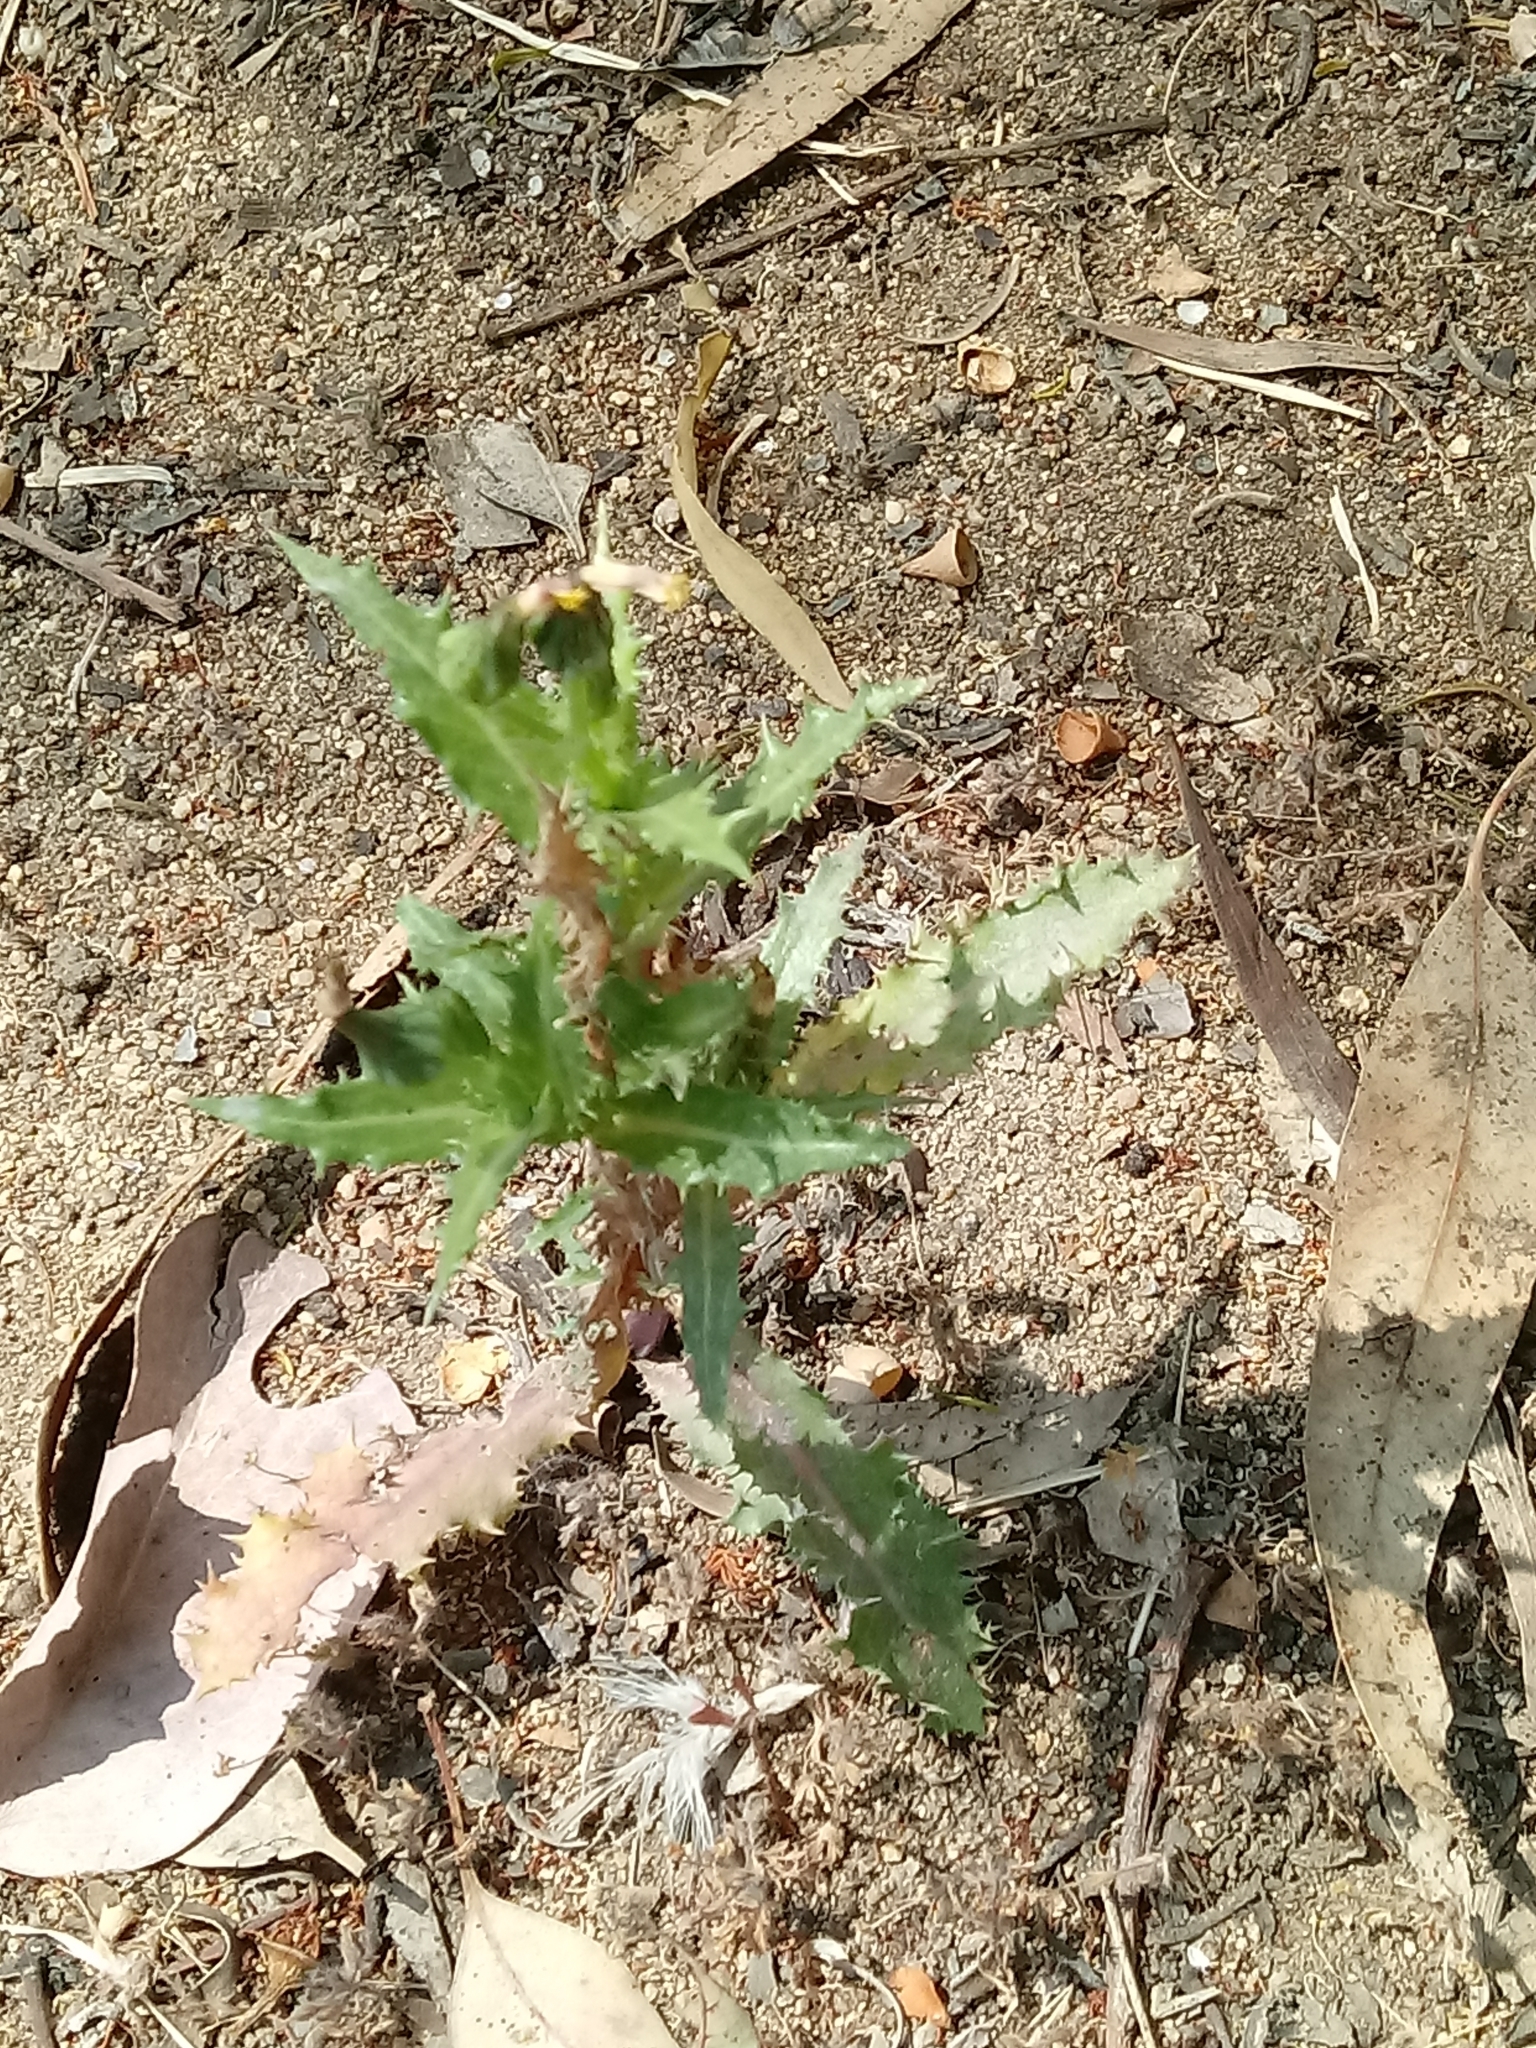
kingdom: Plantae
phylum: Tracheophyta
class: Magnoliopsida
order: Asterales
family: Asteraceae
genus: Sonchus
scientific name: Sonchus asper
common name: Prickly sow-thistle
